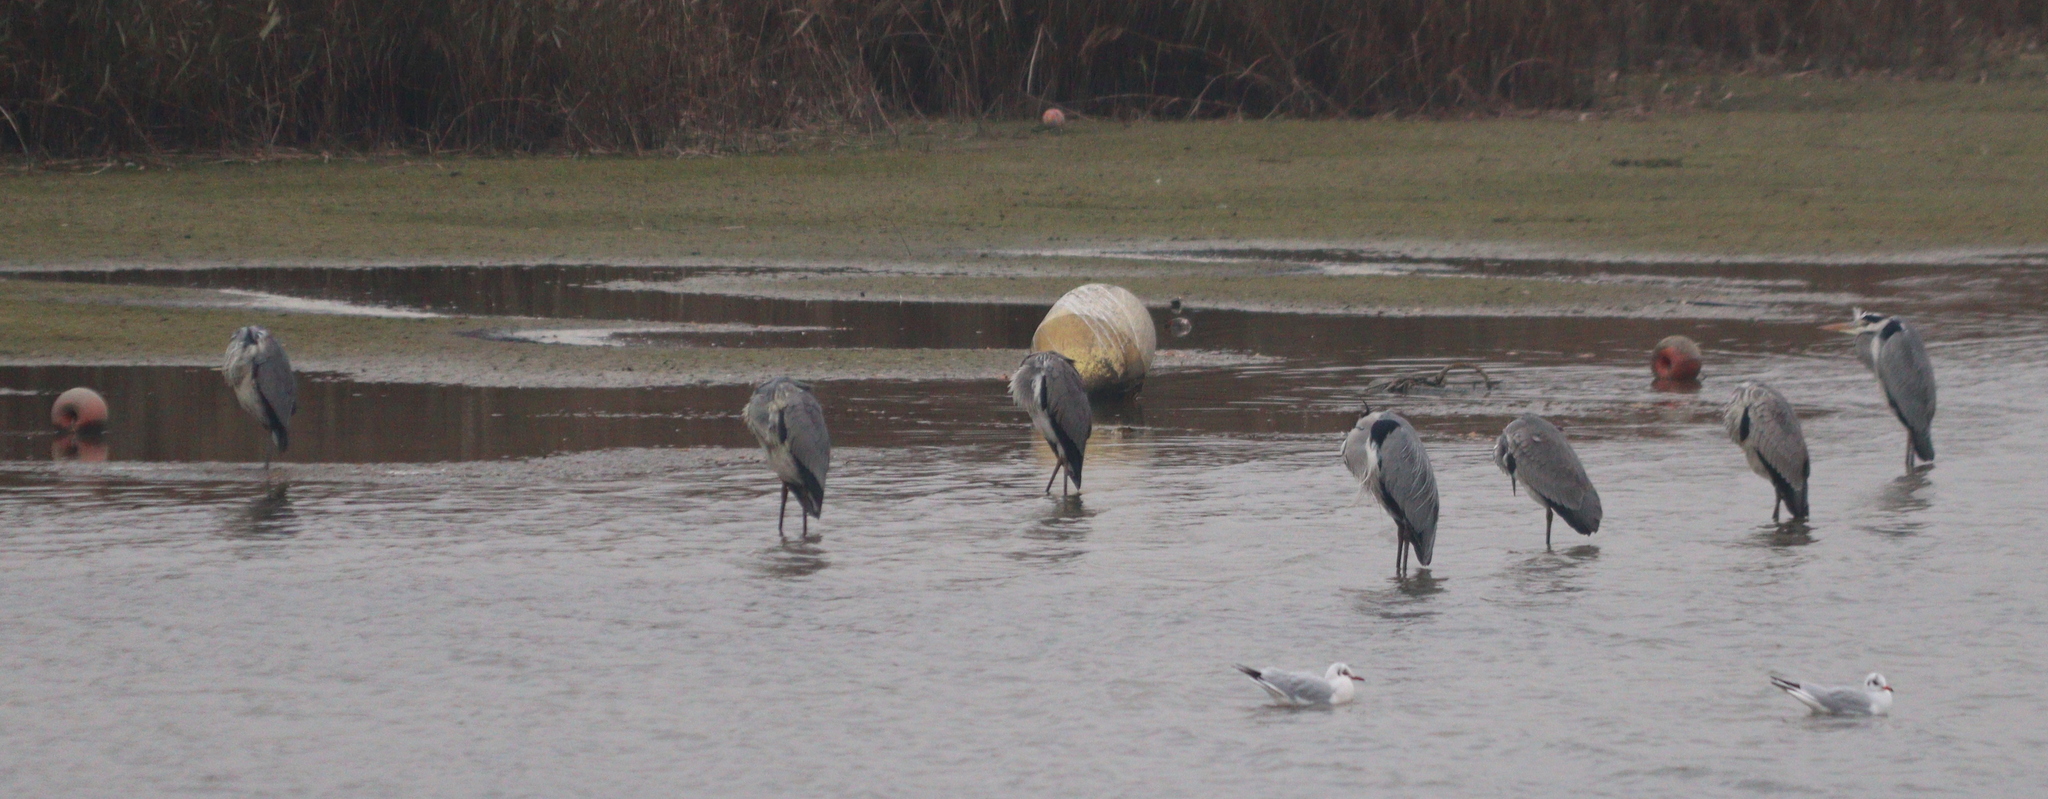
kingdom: Animalia
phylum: Chordata
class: Aves
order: Pelecaniformes
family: Ardeidae
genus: Ardea
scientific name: Ardea cinerea
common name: Grey heron
